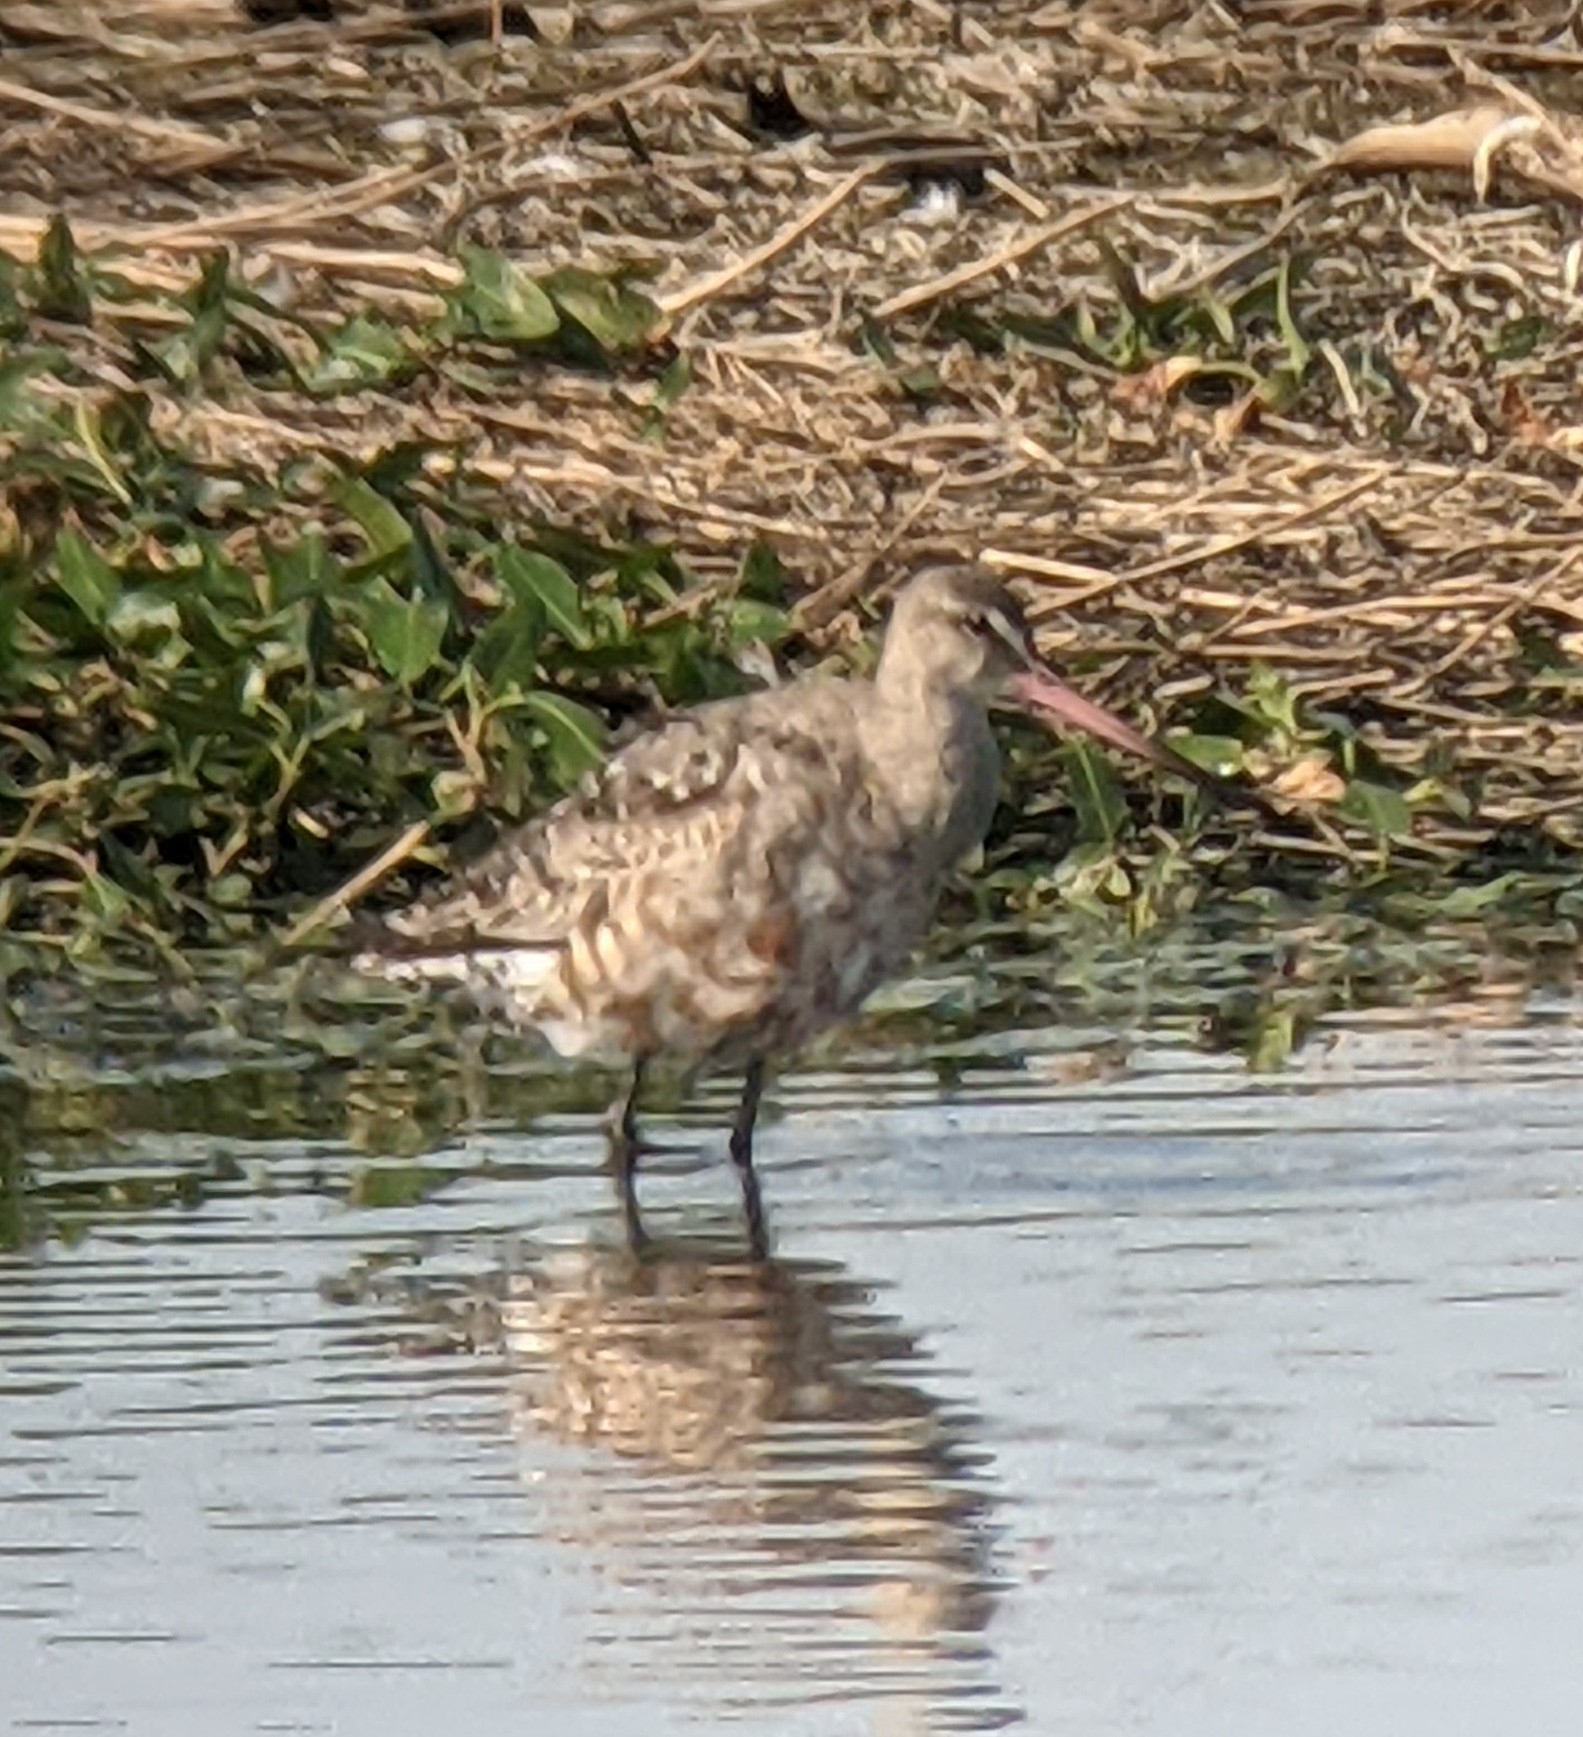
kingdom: Animalia
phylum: Chordata
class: Aves
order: Charadriiformes
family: Scolopacidae
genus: Limosa
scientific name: Limosa haemastica
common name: Hudsonian godwit
